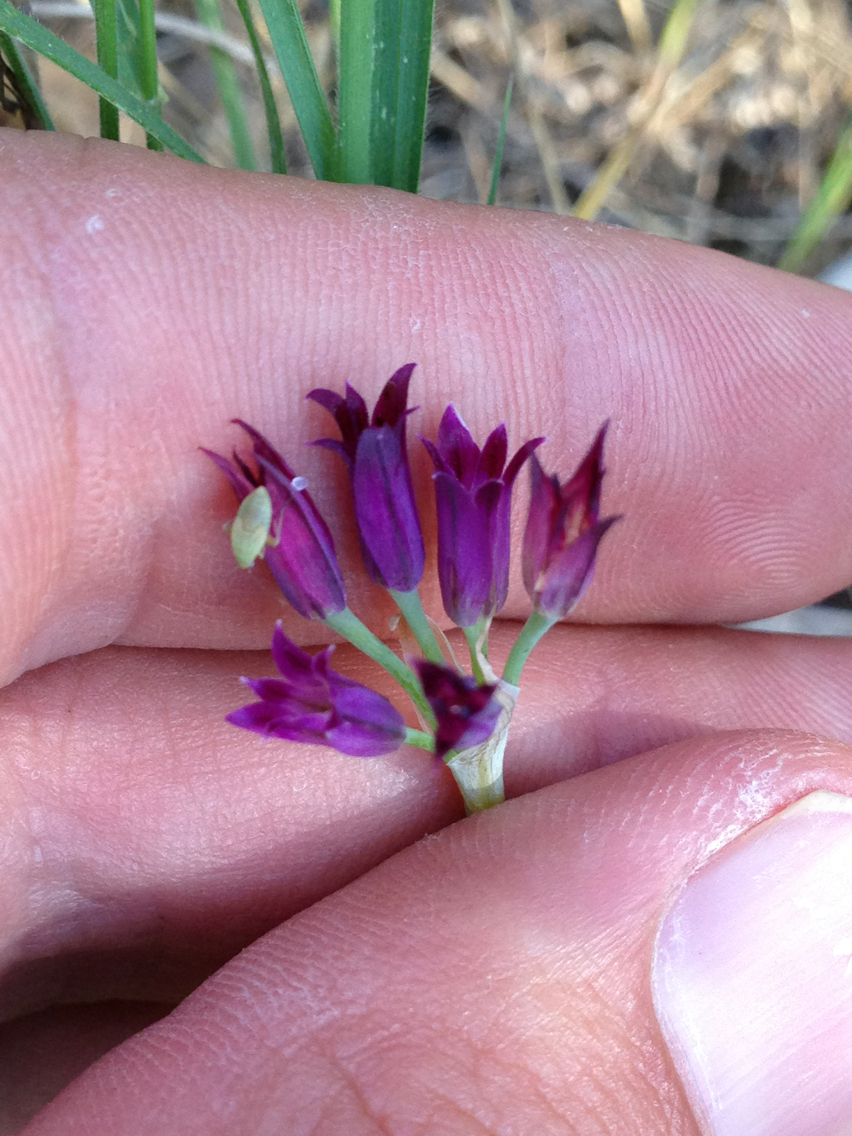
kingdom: Plantae
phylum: Tracheophyta
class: Liliopsida
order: Asparagales
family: Amaryllidaceae
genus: Allium
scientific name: Allium bolanderi
